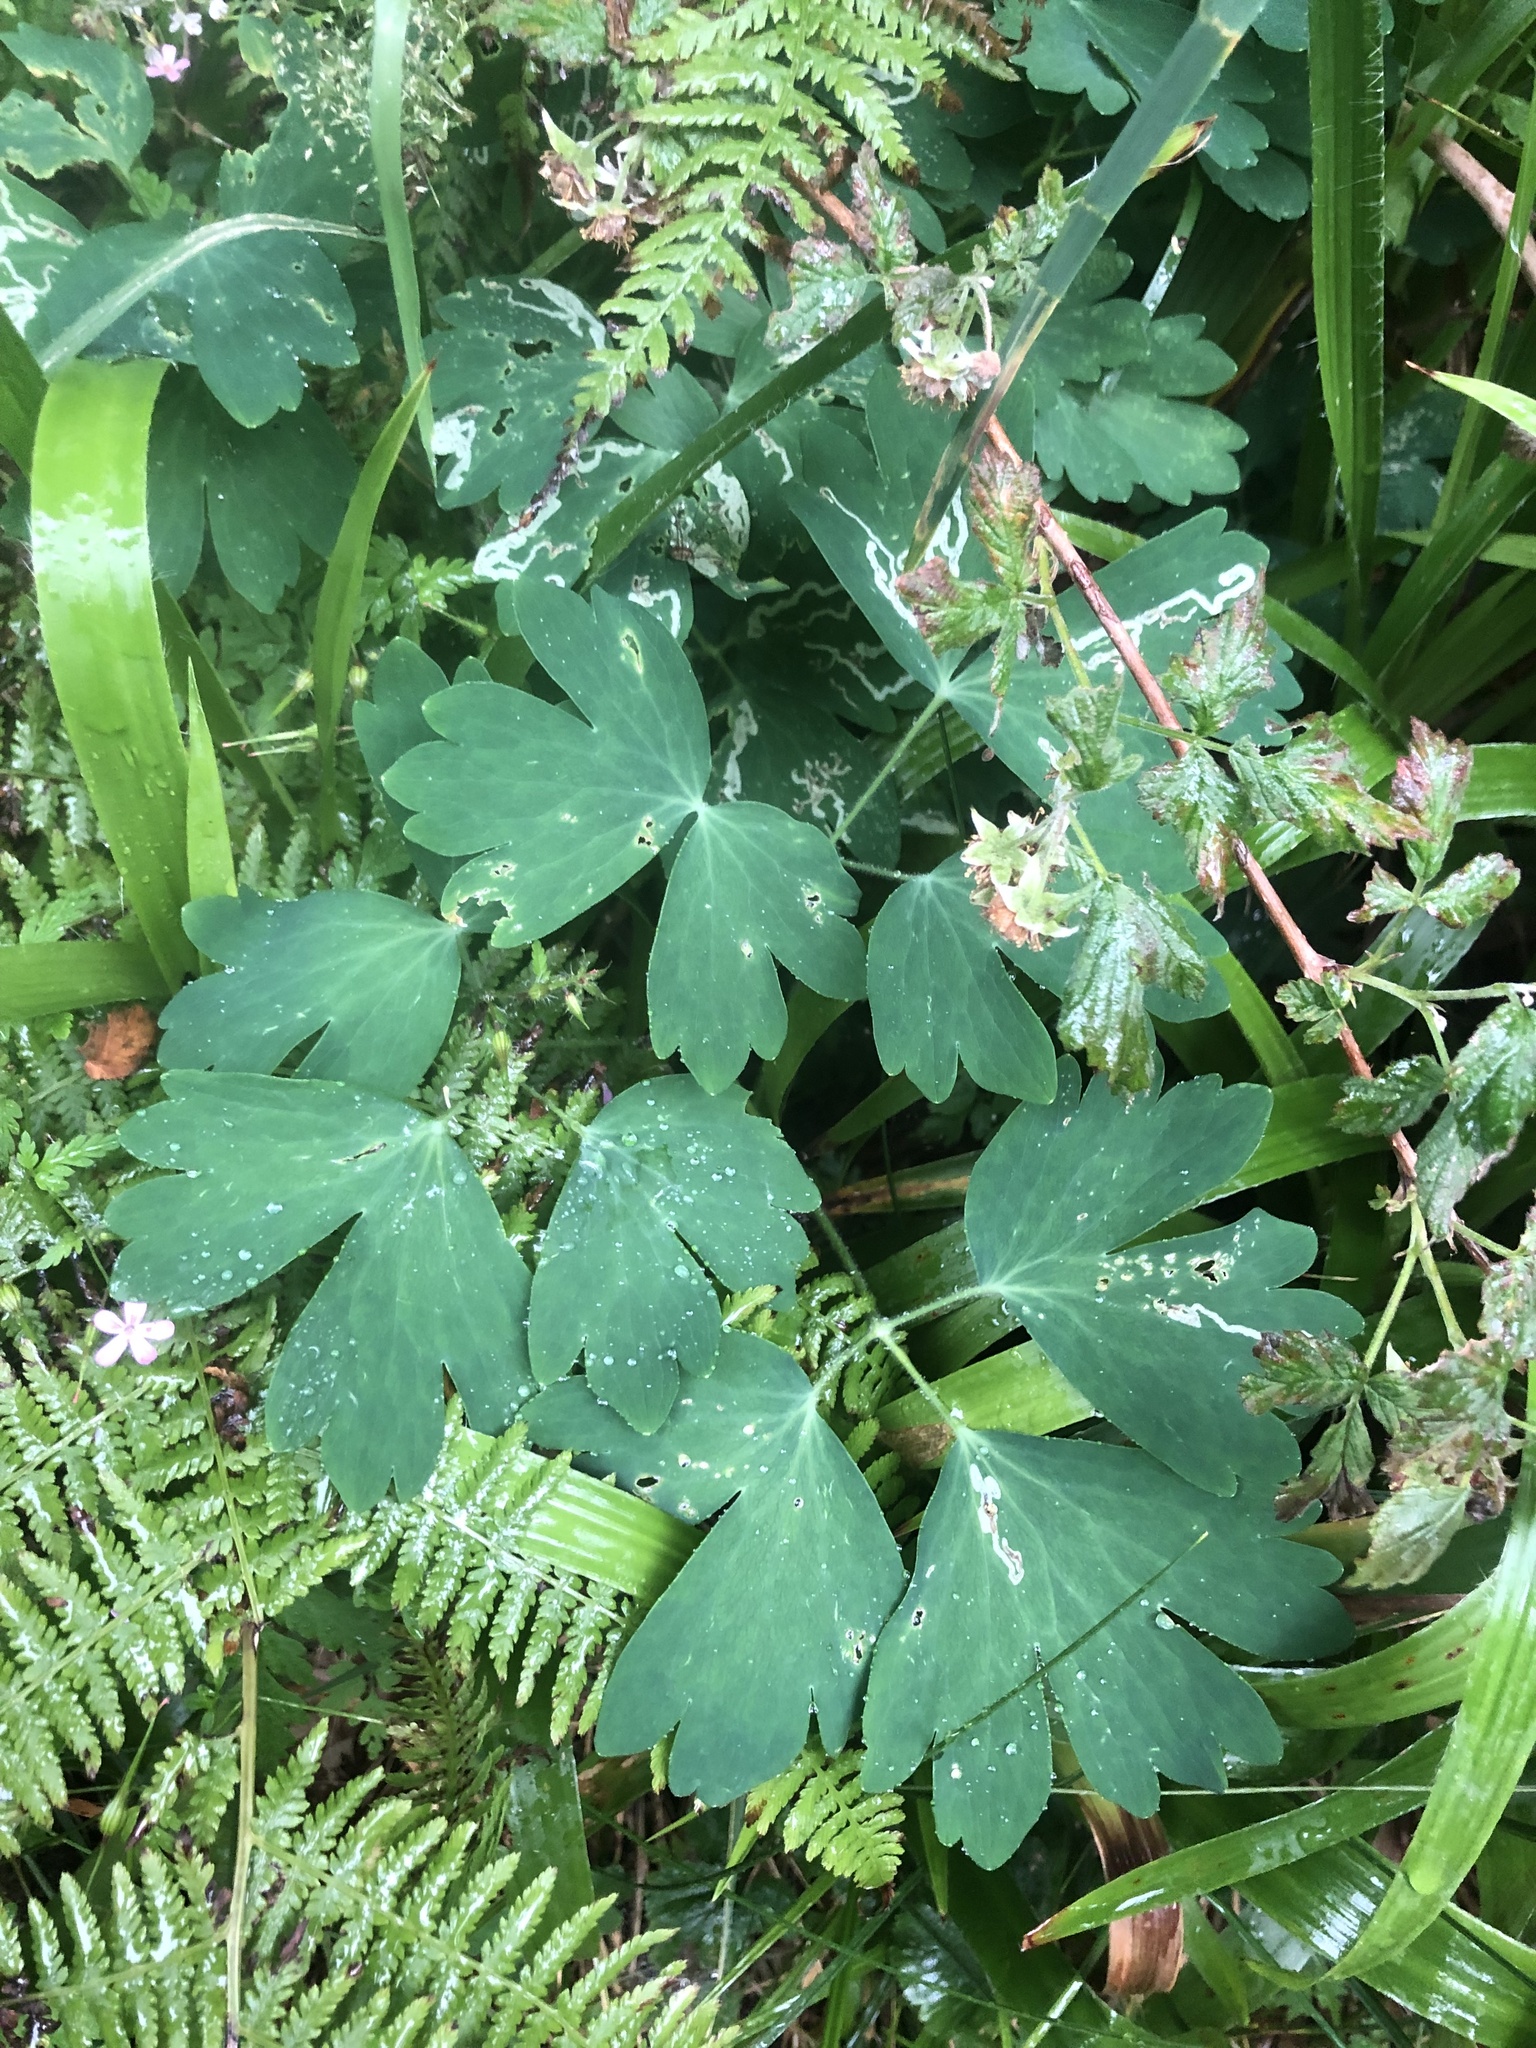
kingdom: Plantae
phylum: Tracheophyta
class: Magnoliopsida
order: Ranunculales
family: Ranunculaceae
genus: Aquilegia
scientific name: Aquilegia vulgaris
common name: Columbine
